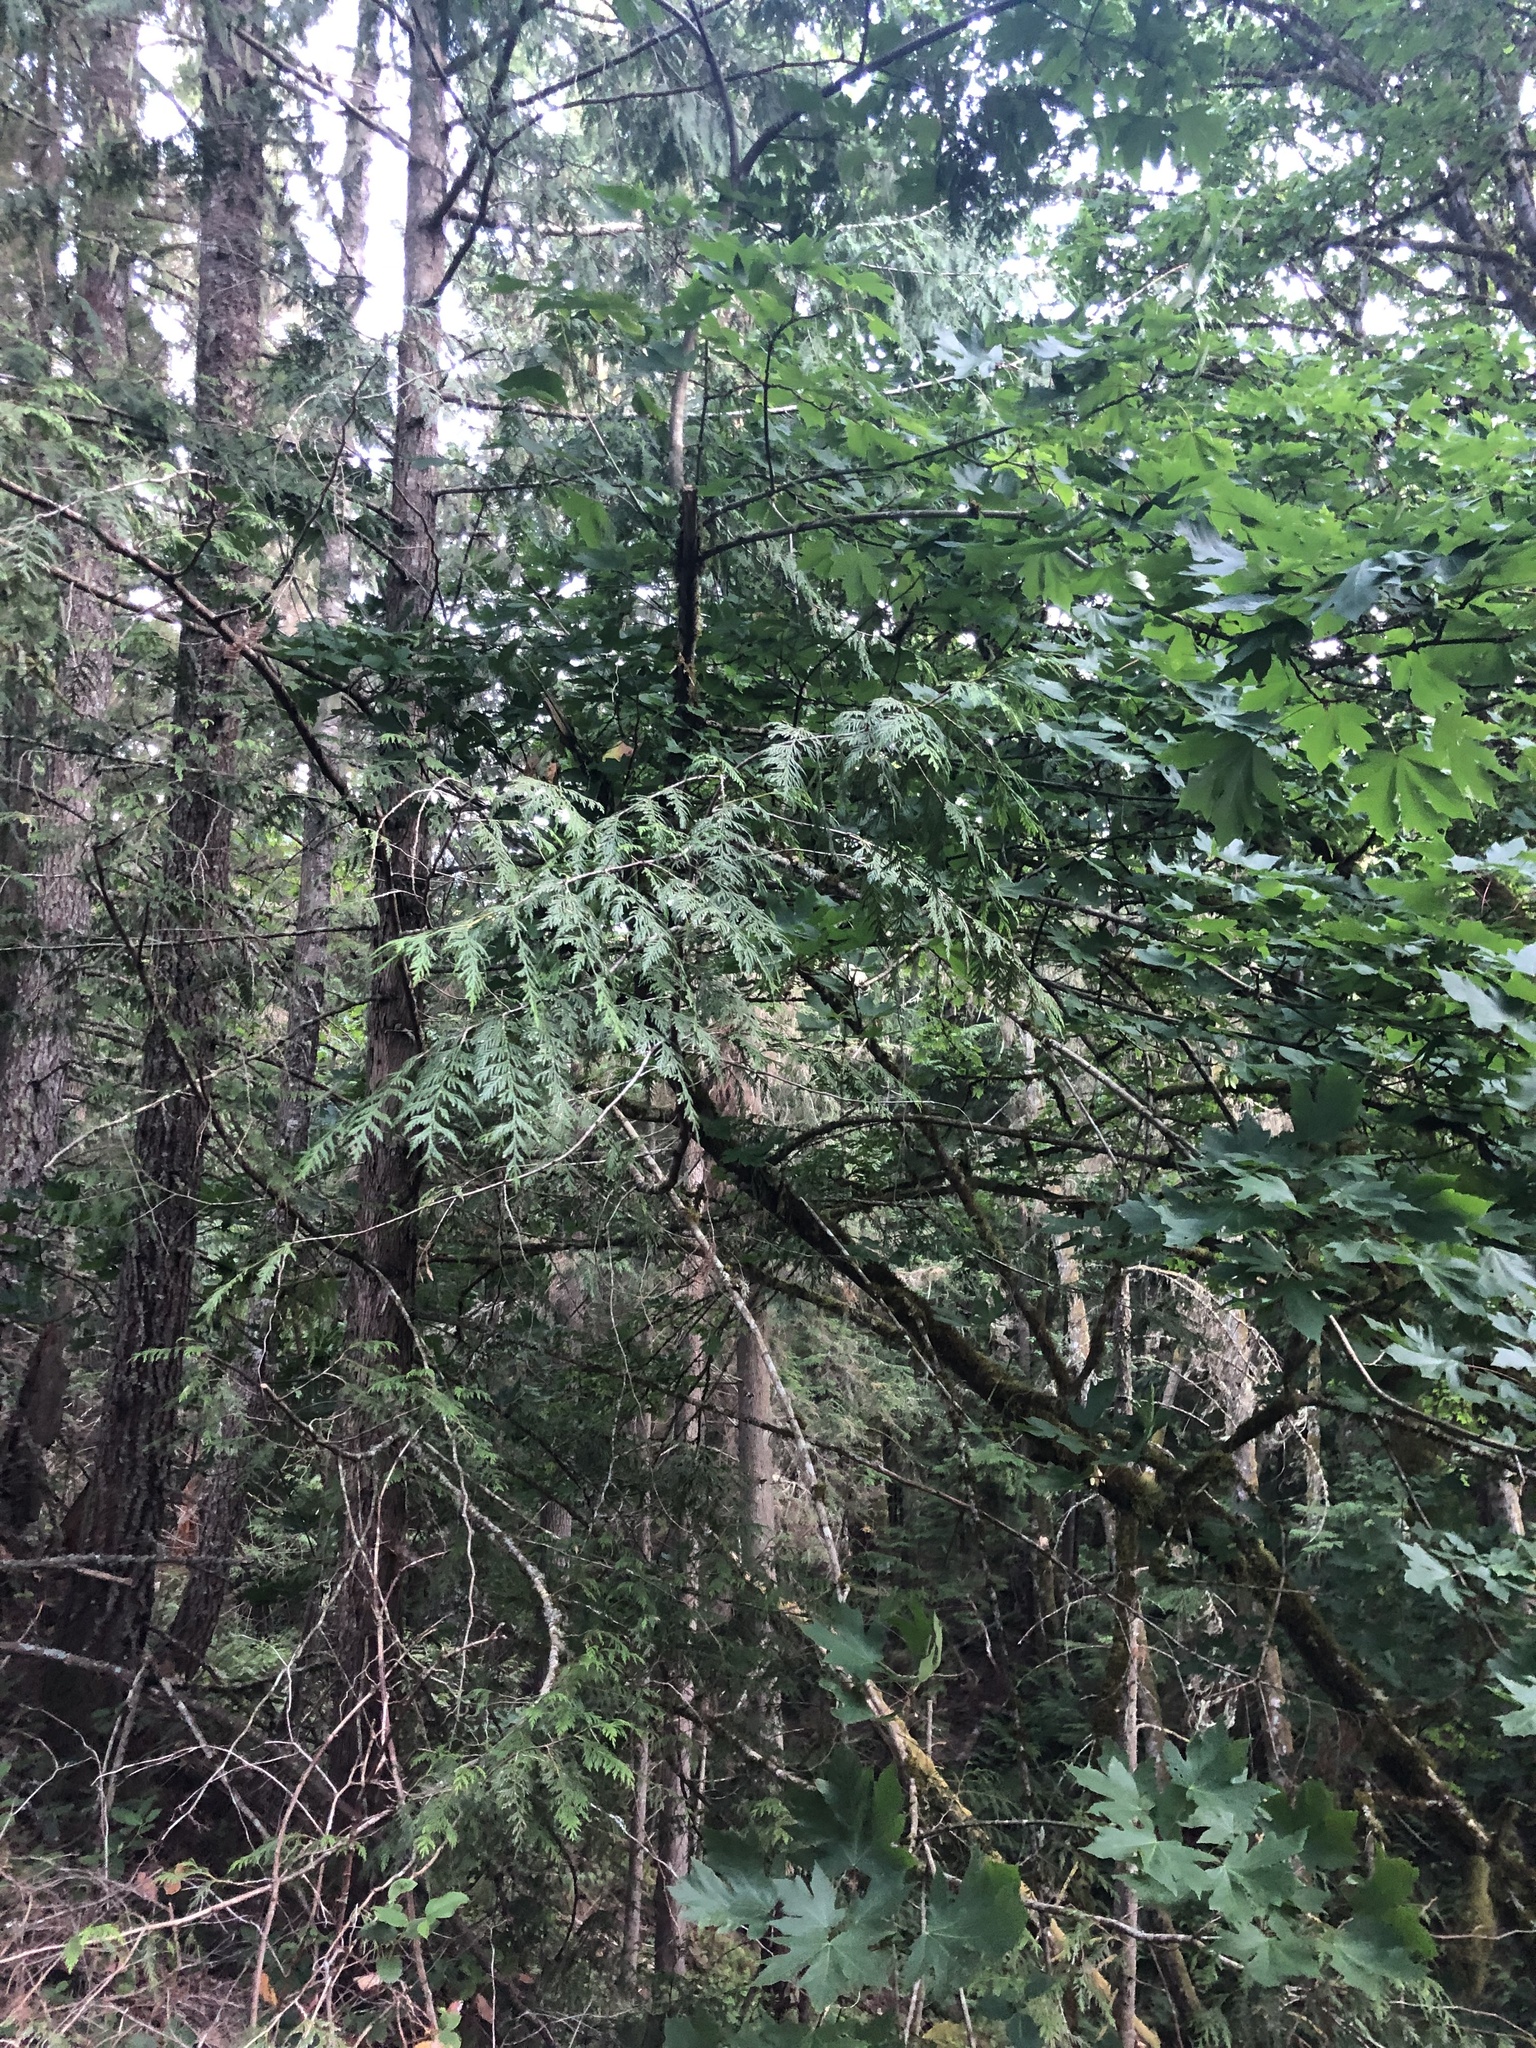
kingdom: Plantae
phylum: Tracheophyta
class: Pinopsida
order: Pinales
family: Cupressaceae
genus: Thuja
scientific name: Thuja plicata
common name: Western red-cedar
